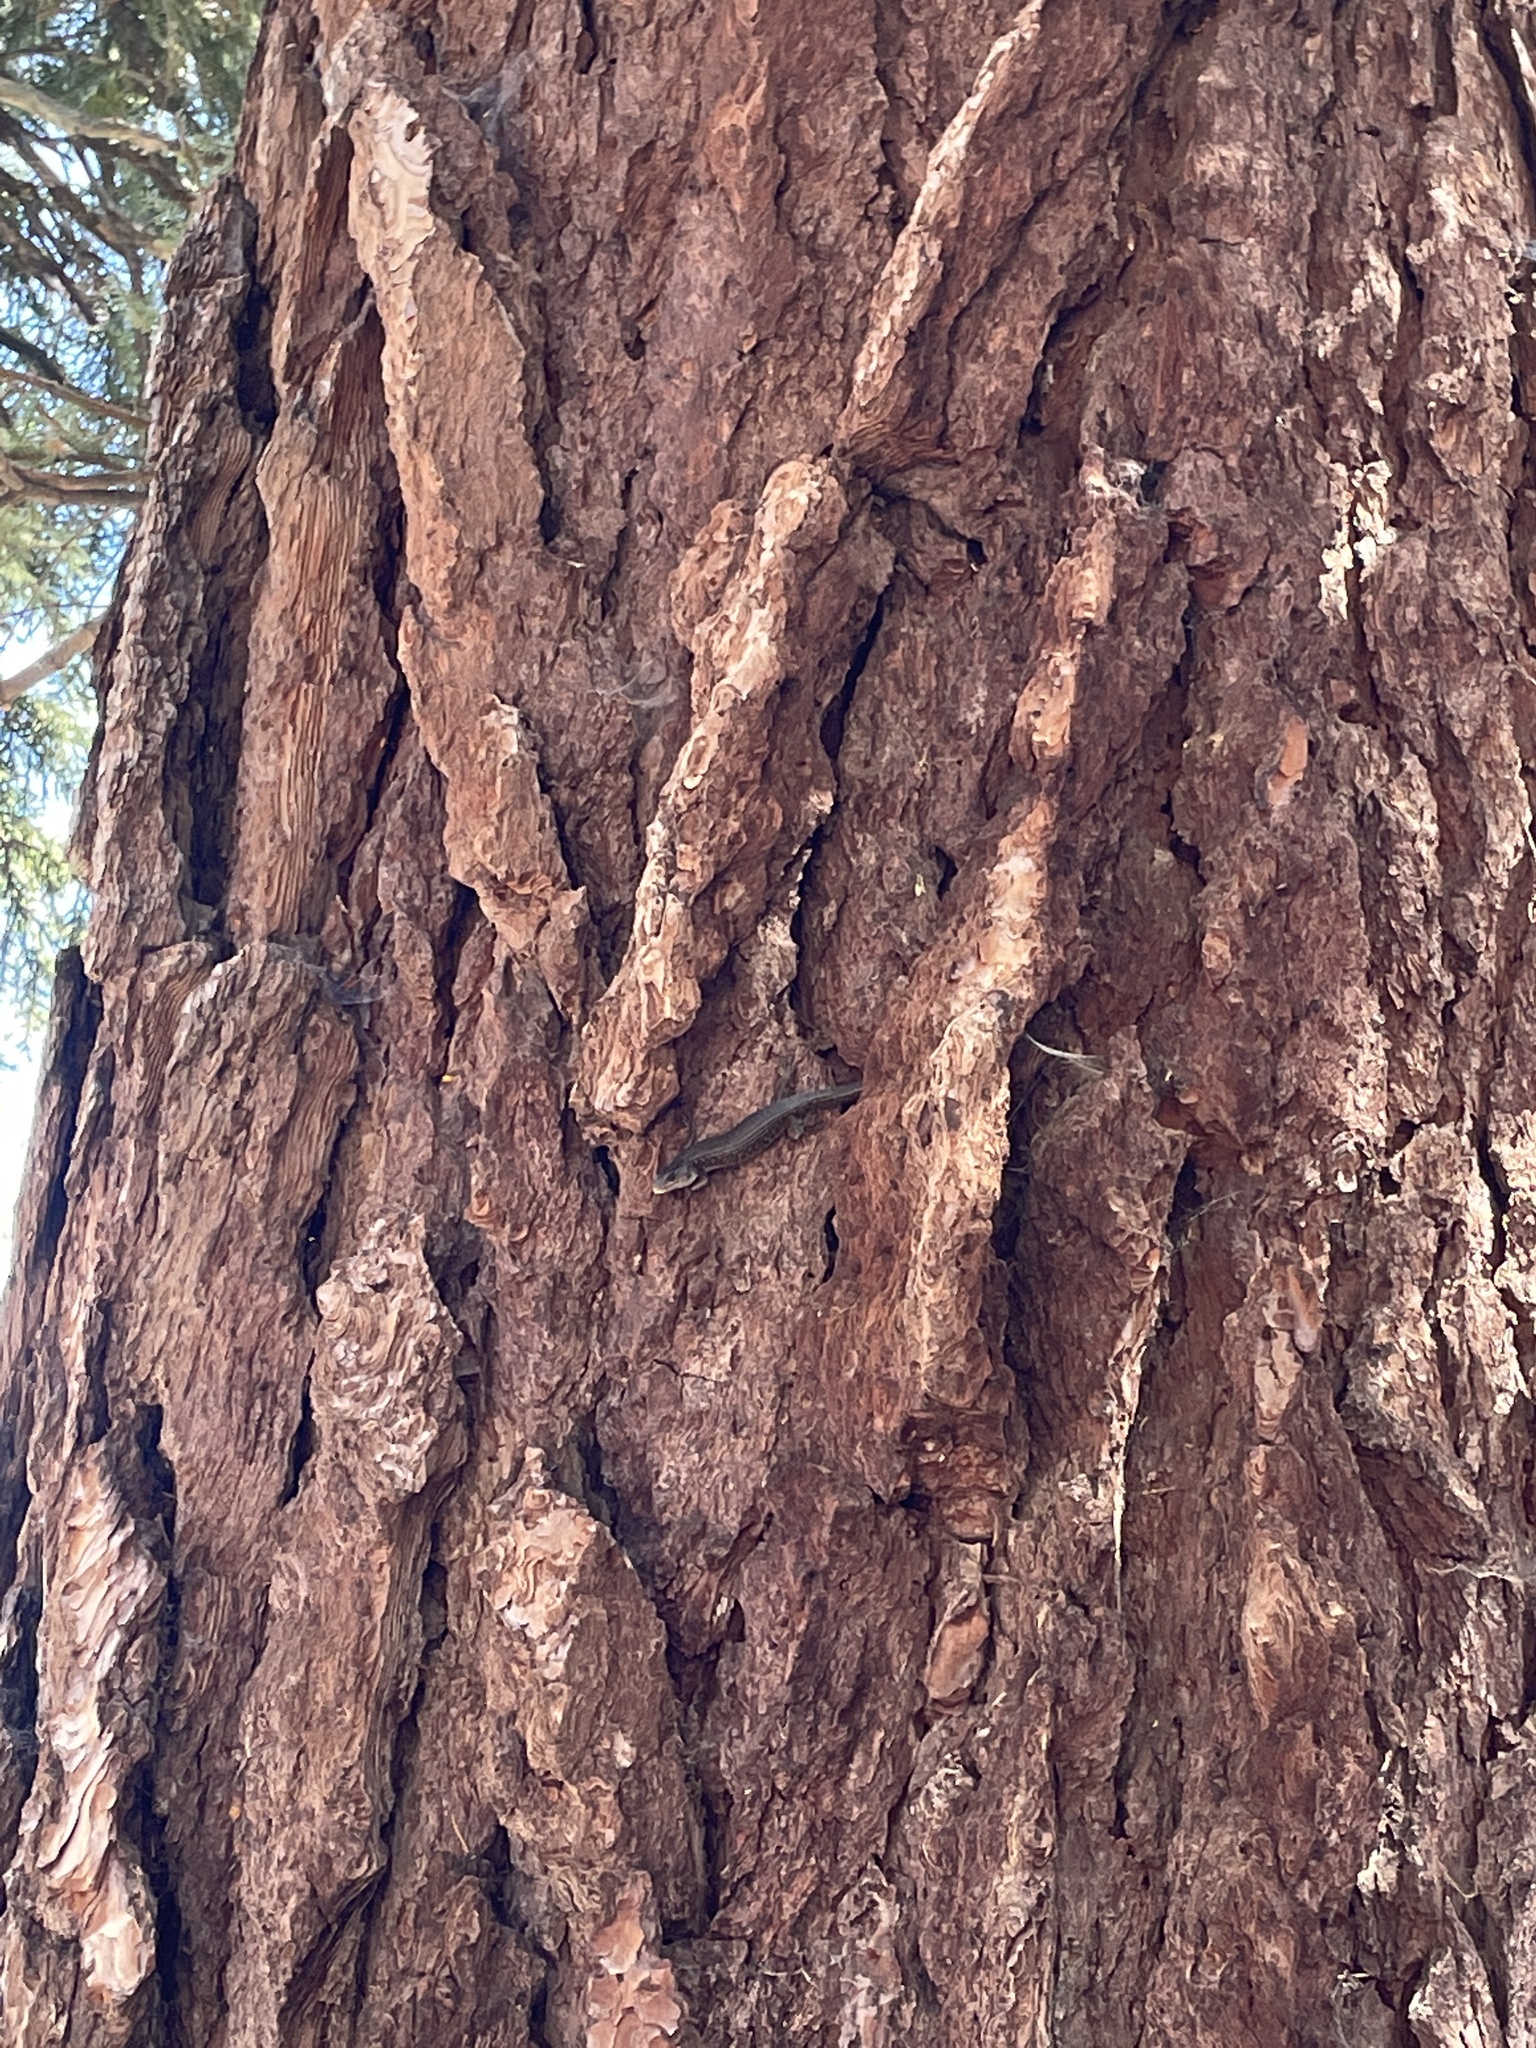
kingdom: Animalia
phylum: Chordata
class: Squamata
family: Anguidae
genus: Elgaria
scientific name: Elgaria coerulea
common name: Northern alligator lizard
